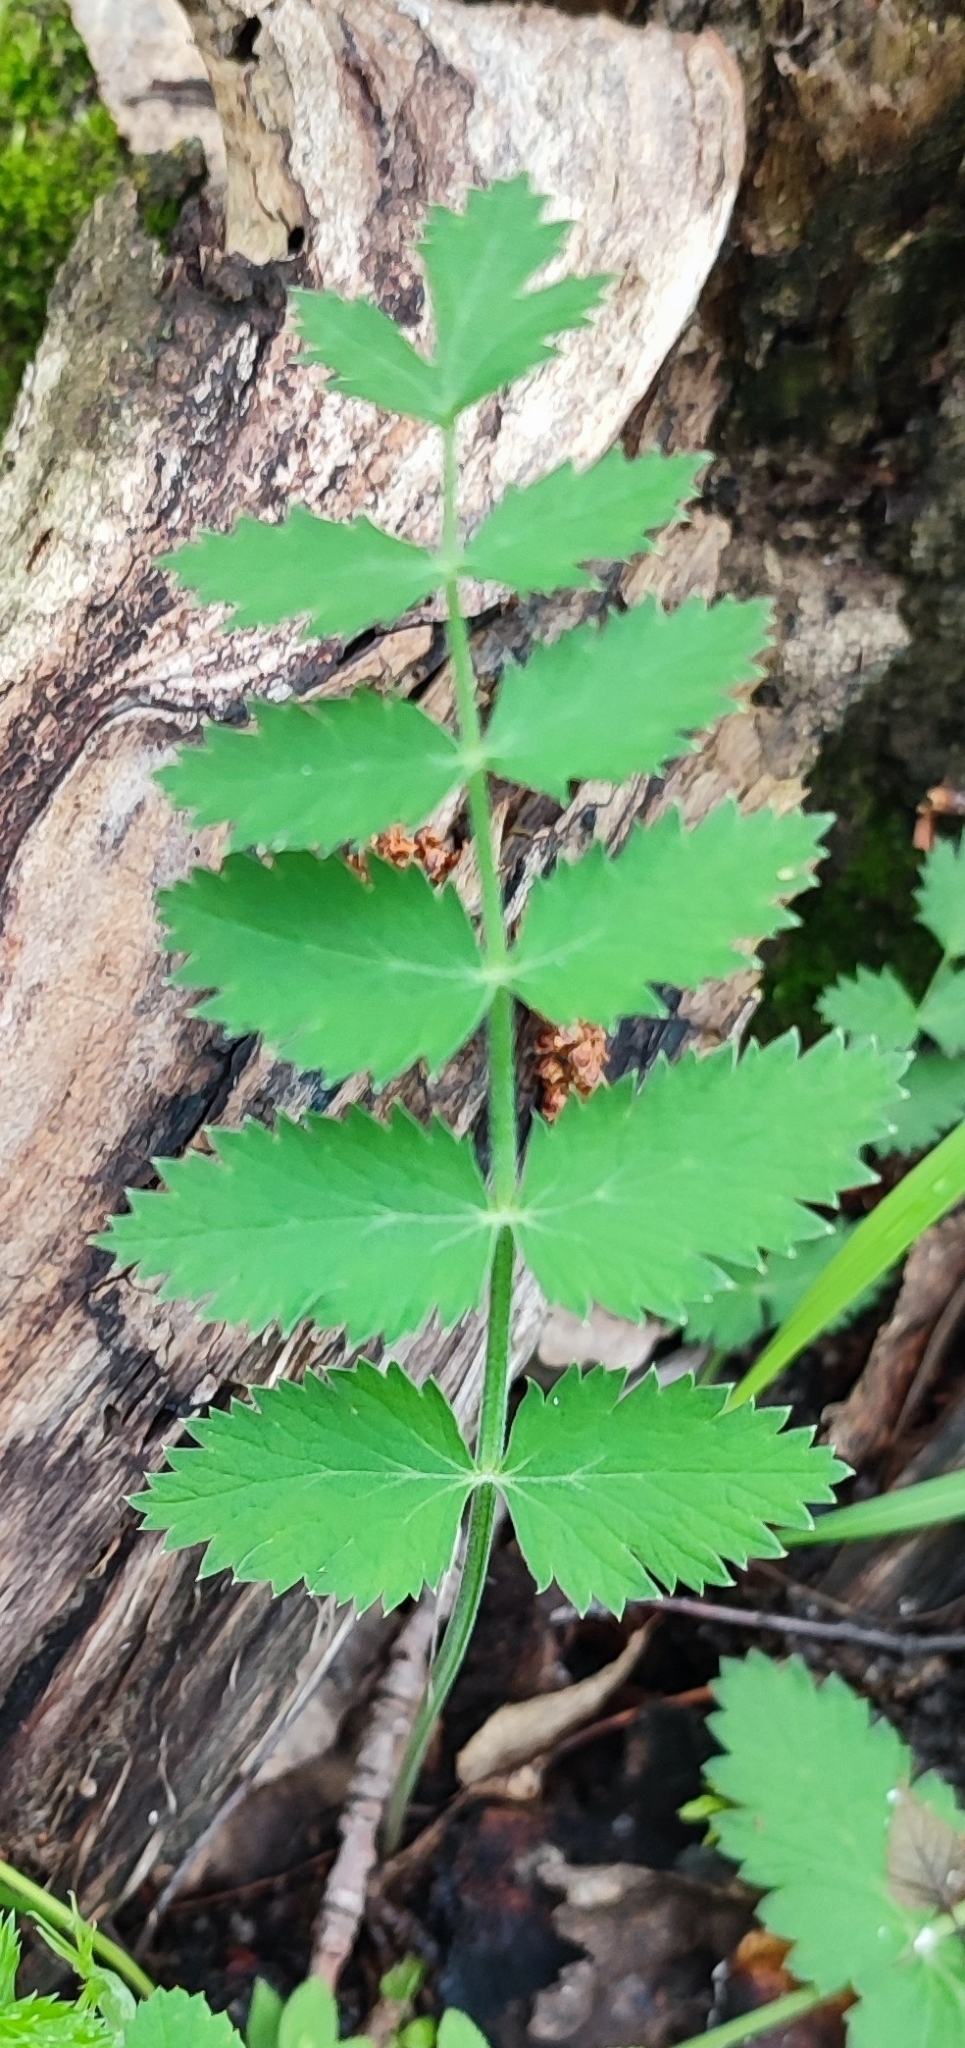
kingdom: Plantae
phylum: Tracheophyta
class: Magnoliopsida
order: Apiales
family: Apiaceae
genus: Pimpinella
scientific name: Pimpinella saxifraga
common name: Burnet-saxifrage
